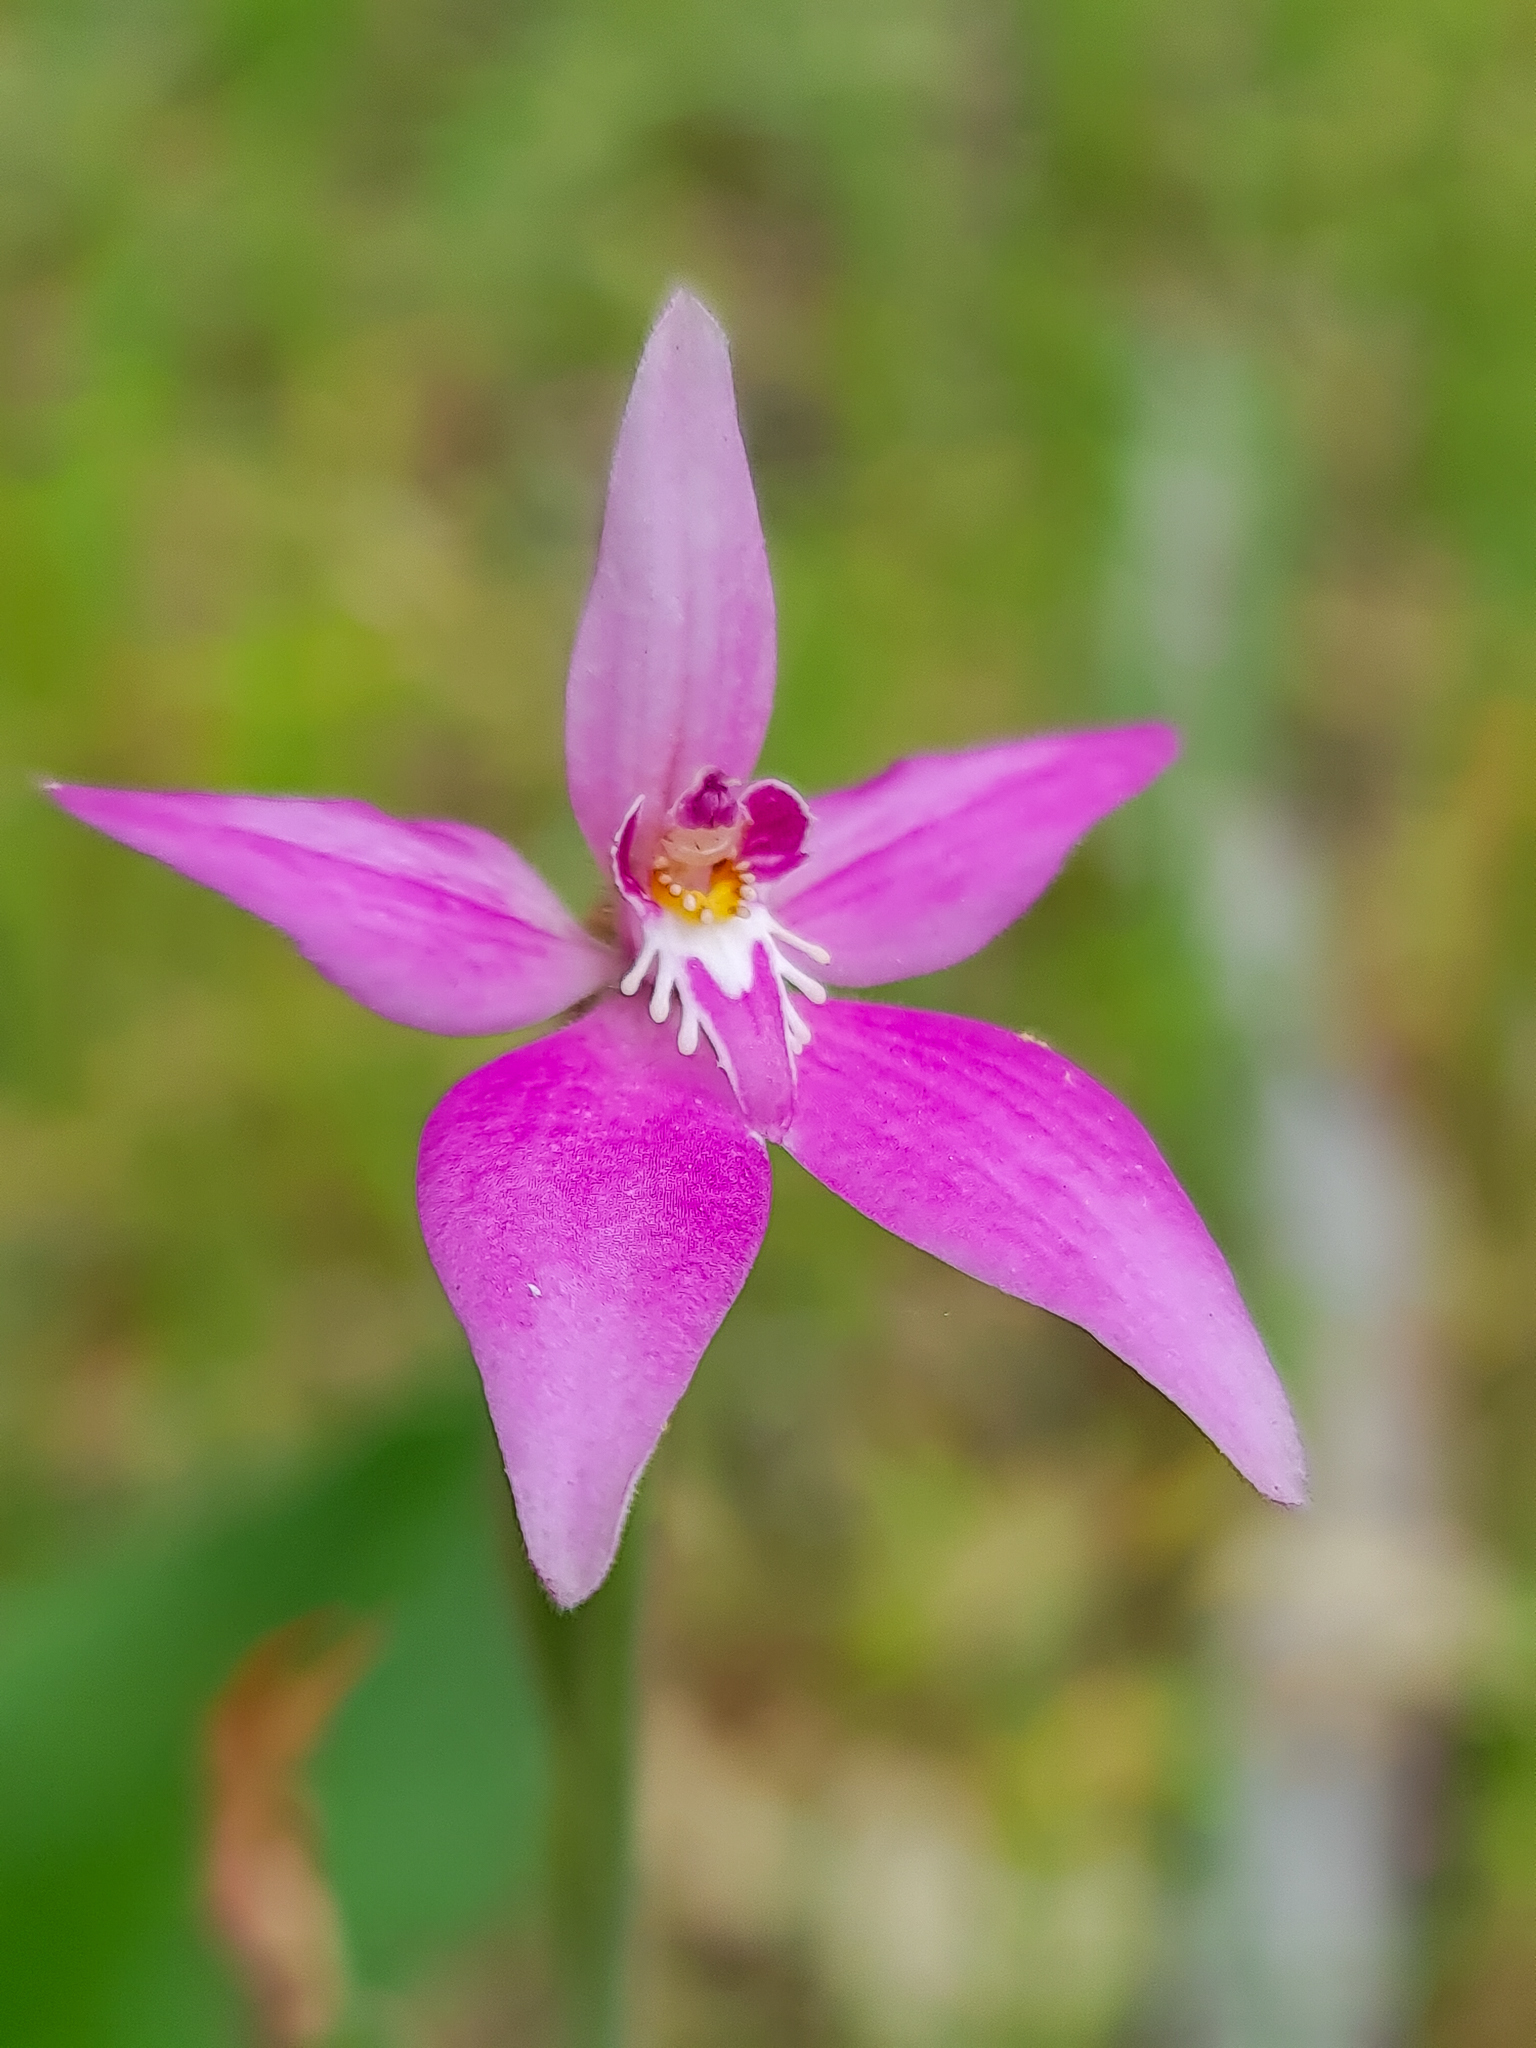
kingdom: Plantae
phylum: Tracheophyta
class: Liliopsida
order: Asparagales
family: Orchidaceae
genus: Caladenia
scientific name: Caladenia latifolia
